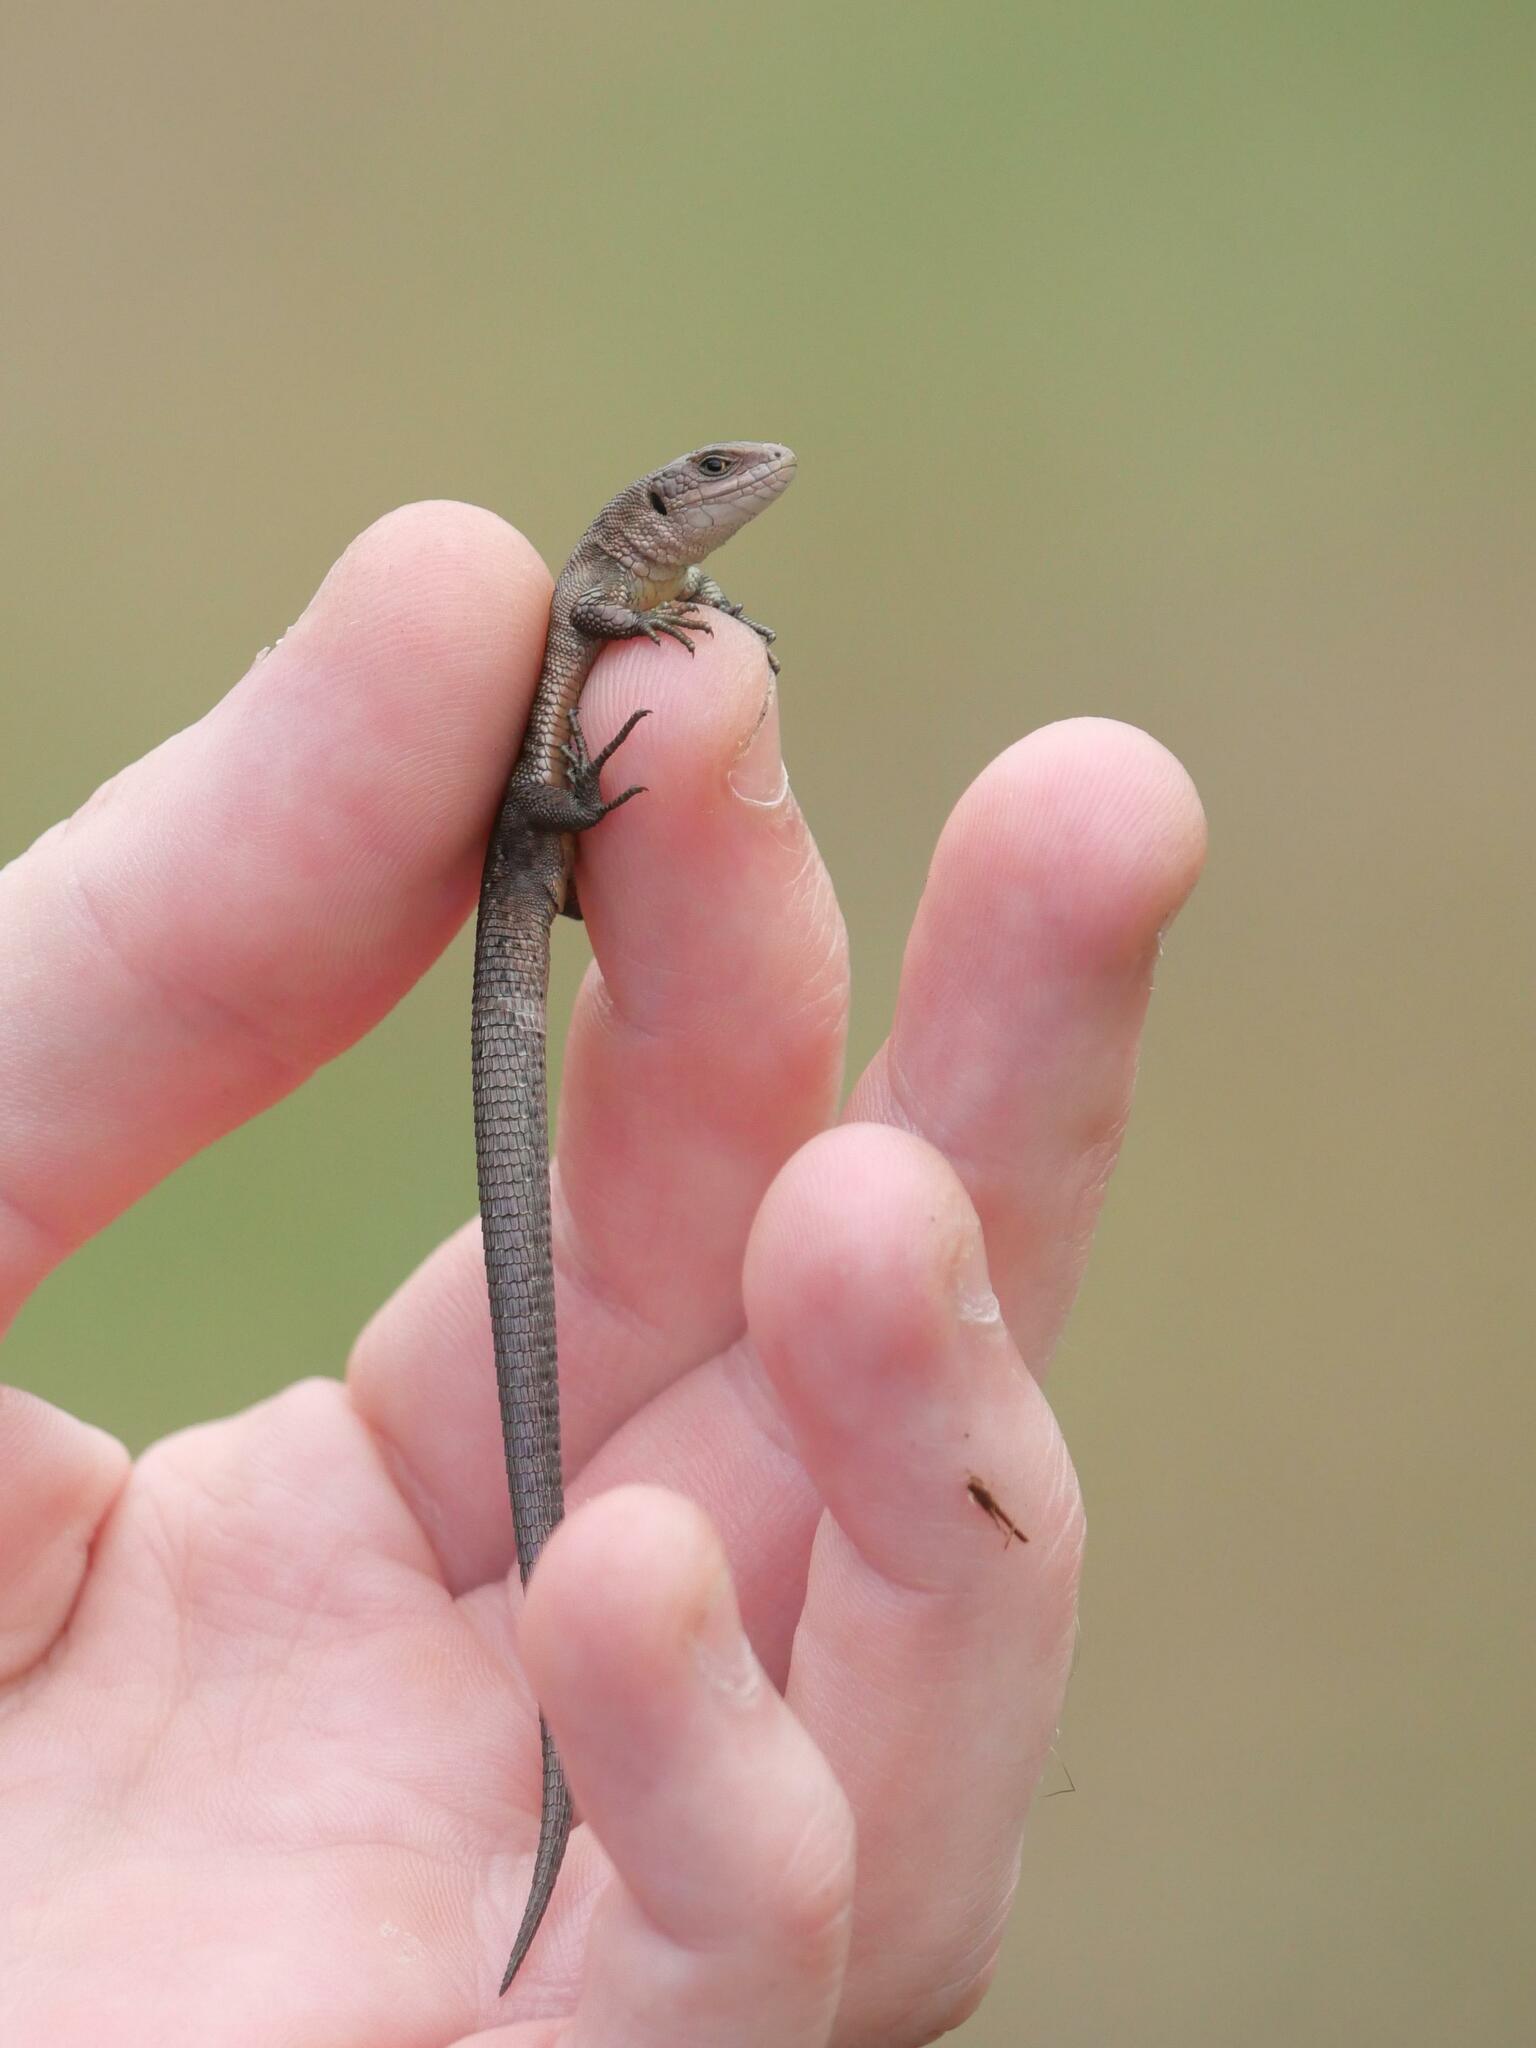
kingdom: Animalia
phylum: Chordata
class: Squamata
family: Lacertidae
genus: Zootoca
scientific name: Zootoca vivipara
